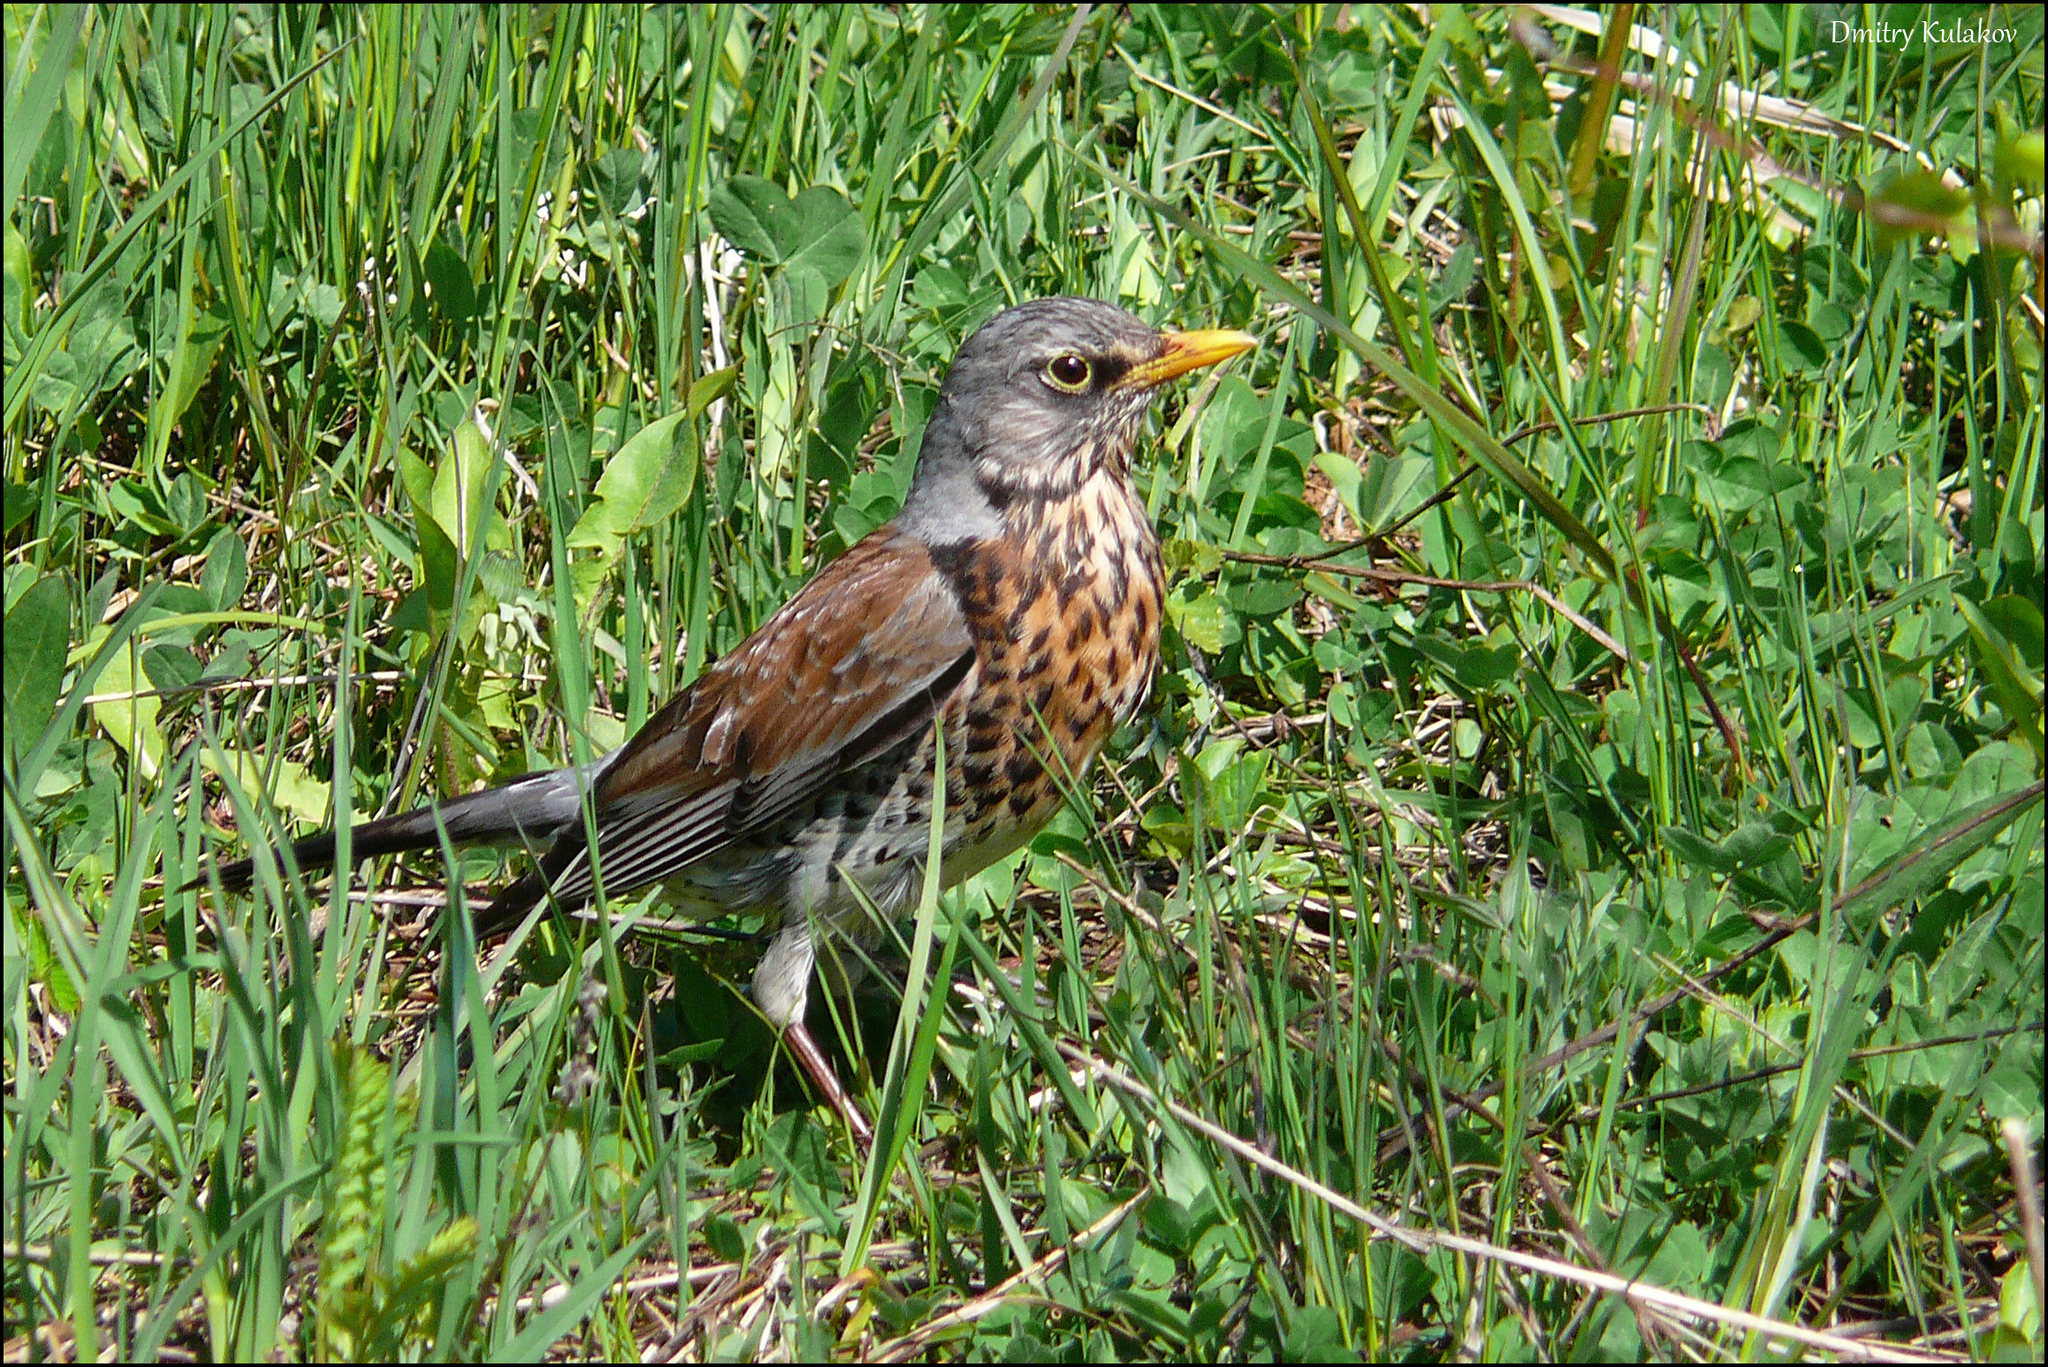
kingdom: Animalia
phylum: Chordata
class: Aves
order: Passeriformes
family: Turdidae
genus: Turdus
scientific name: Turdus pilaris
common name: Fieldfare
